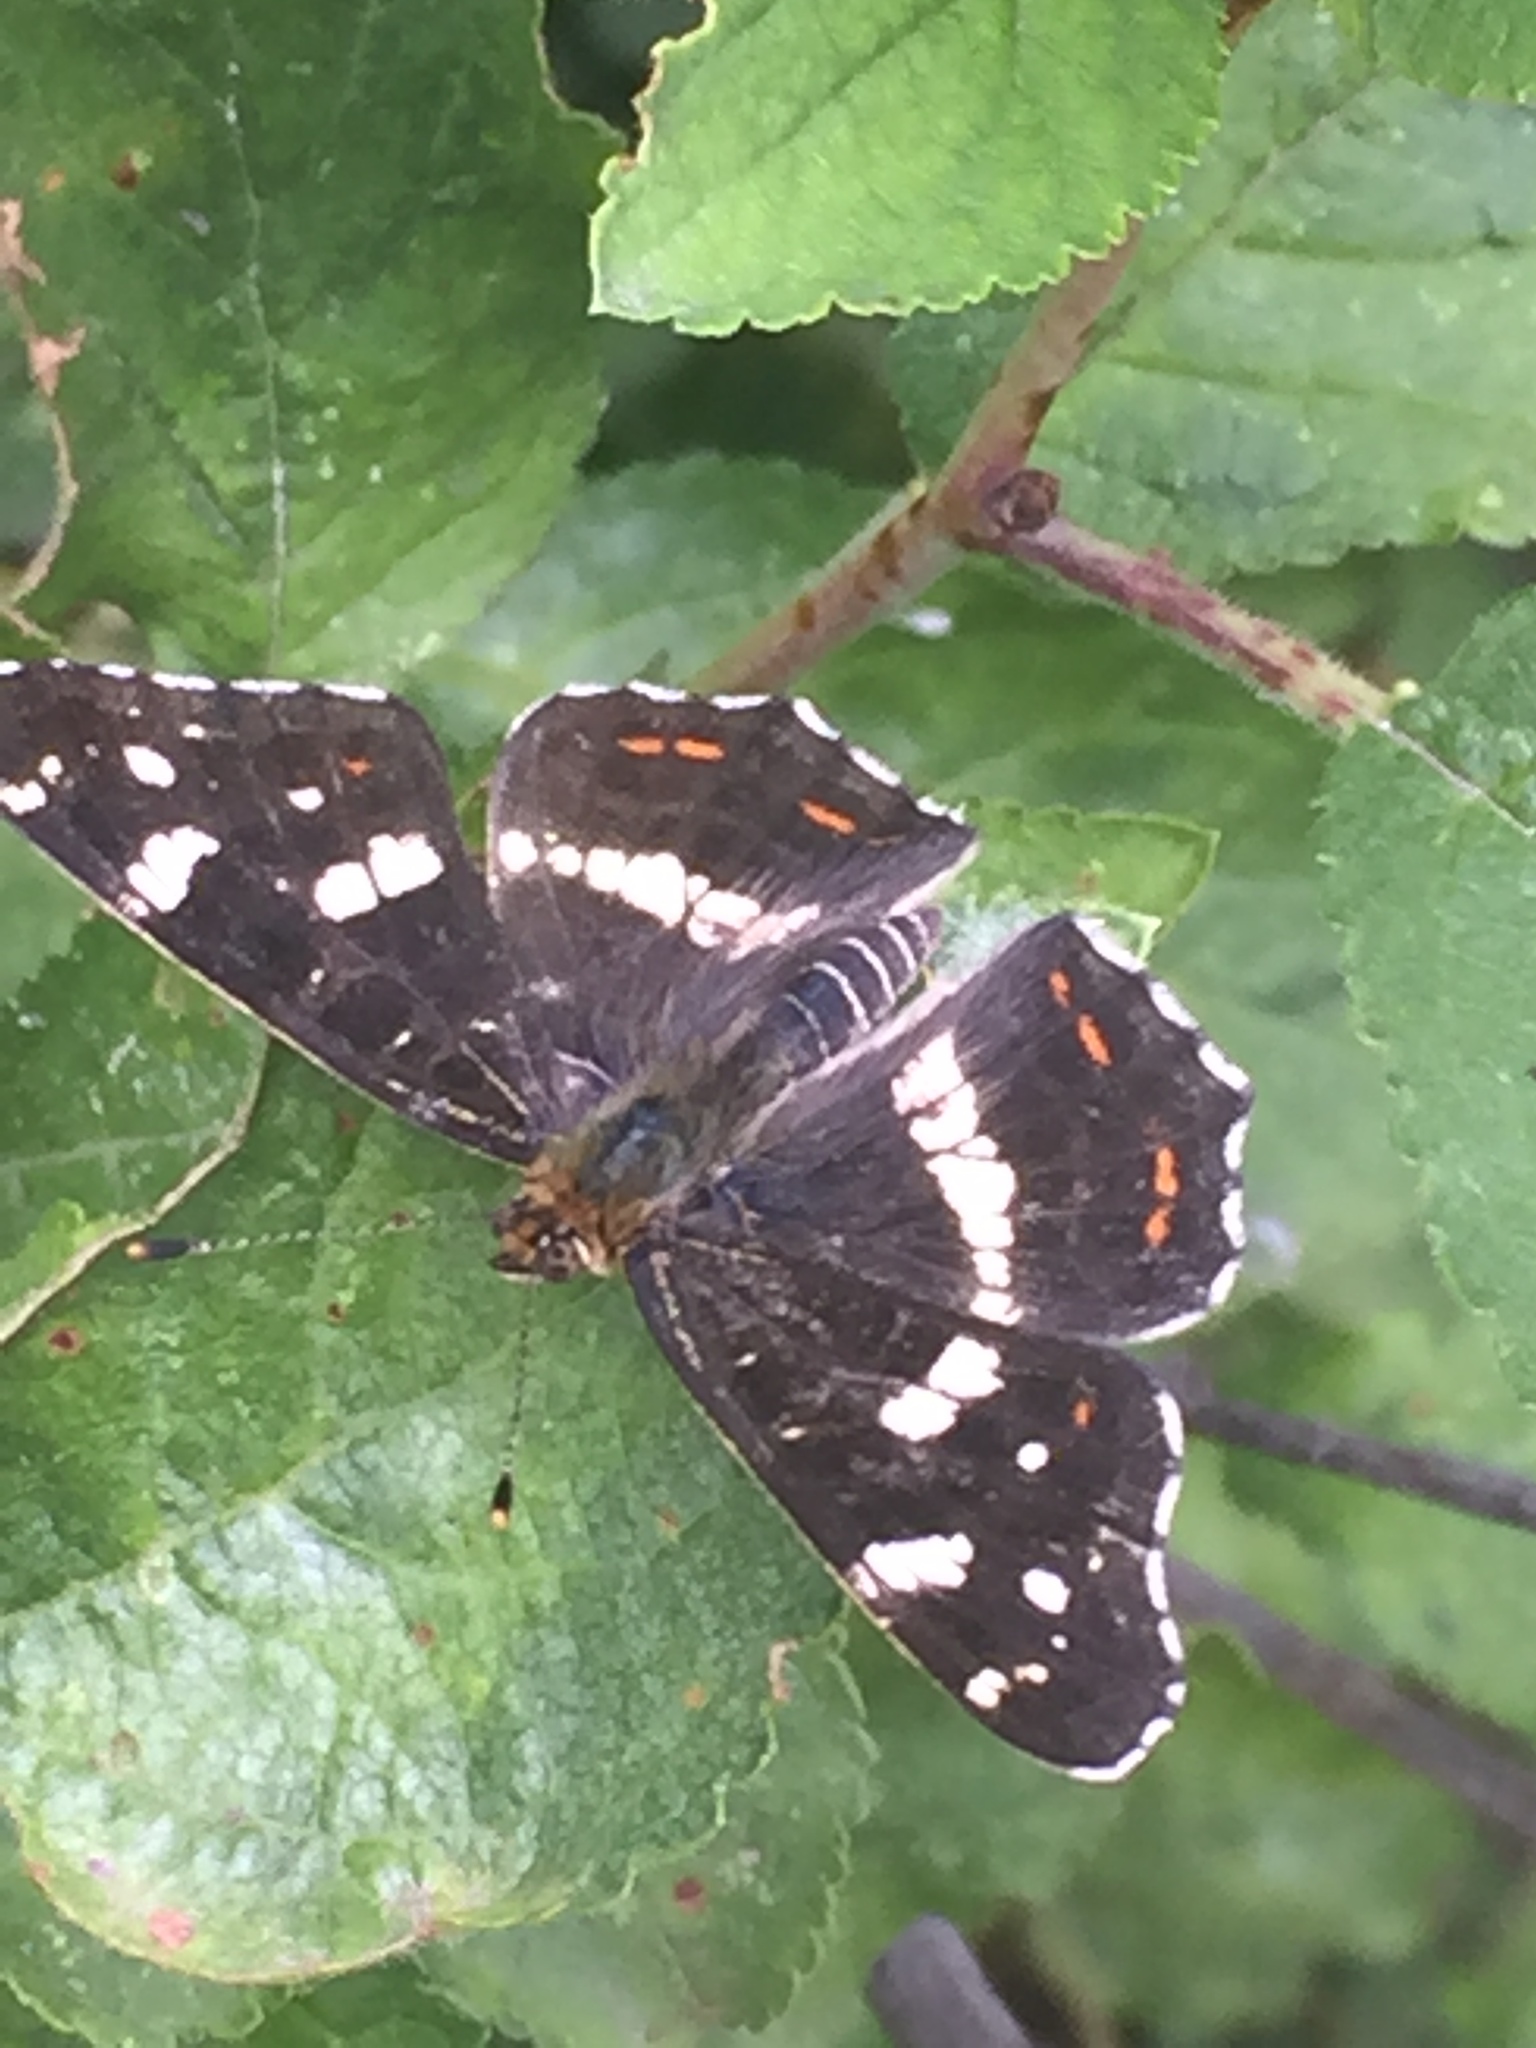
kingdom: Animalia
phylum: Arthropoda
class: Insecta
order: Lepidoptera
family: Nymphalidae
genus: Araschnia
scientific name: Araschnia levana
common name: Map butterfly
